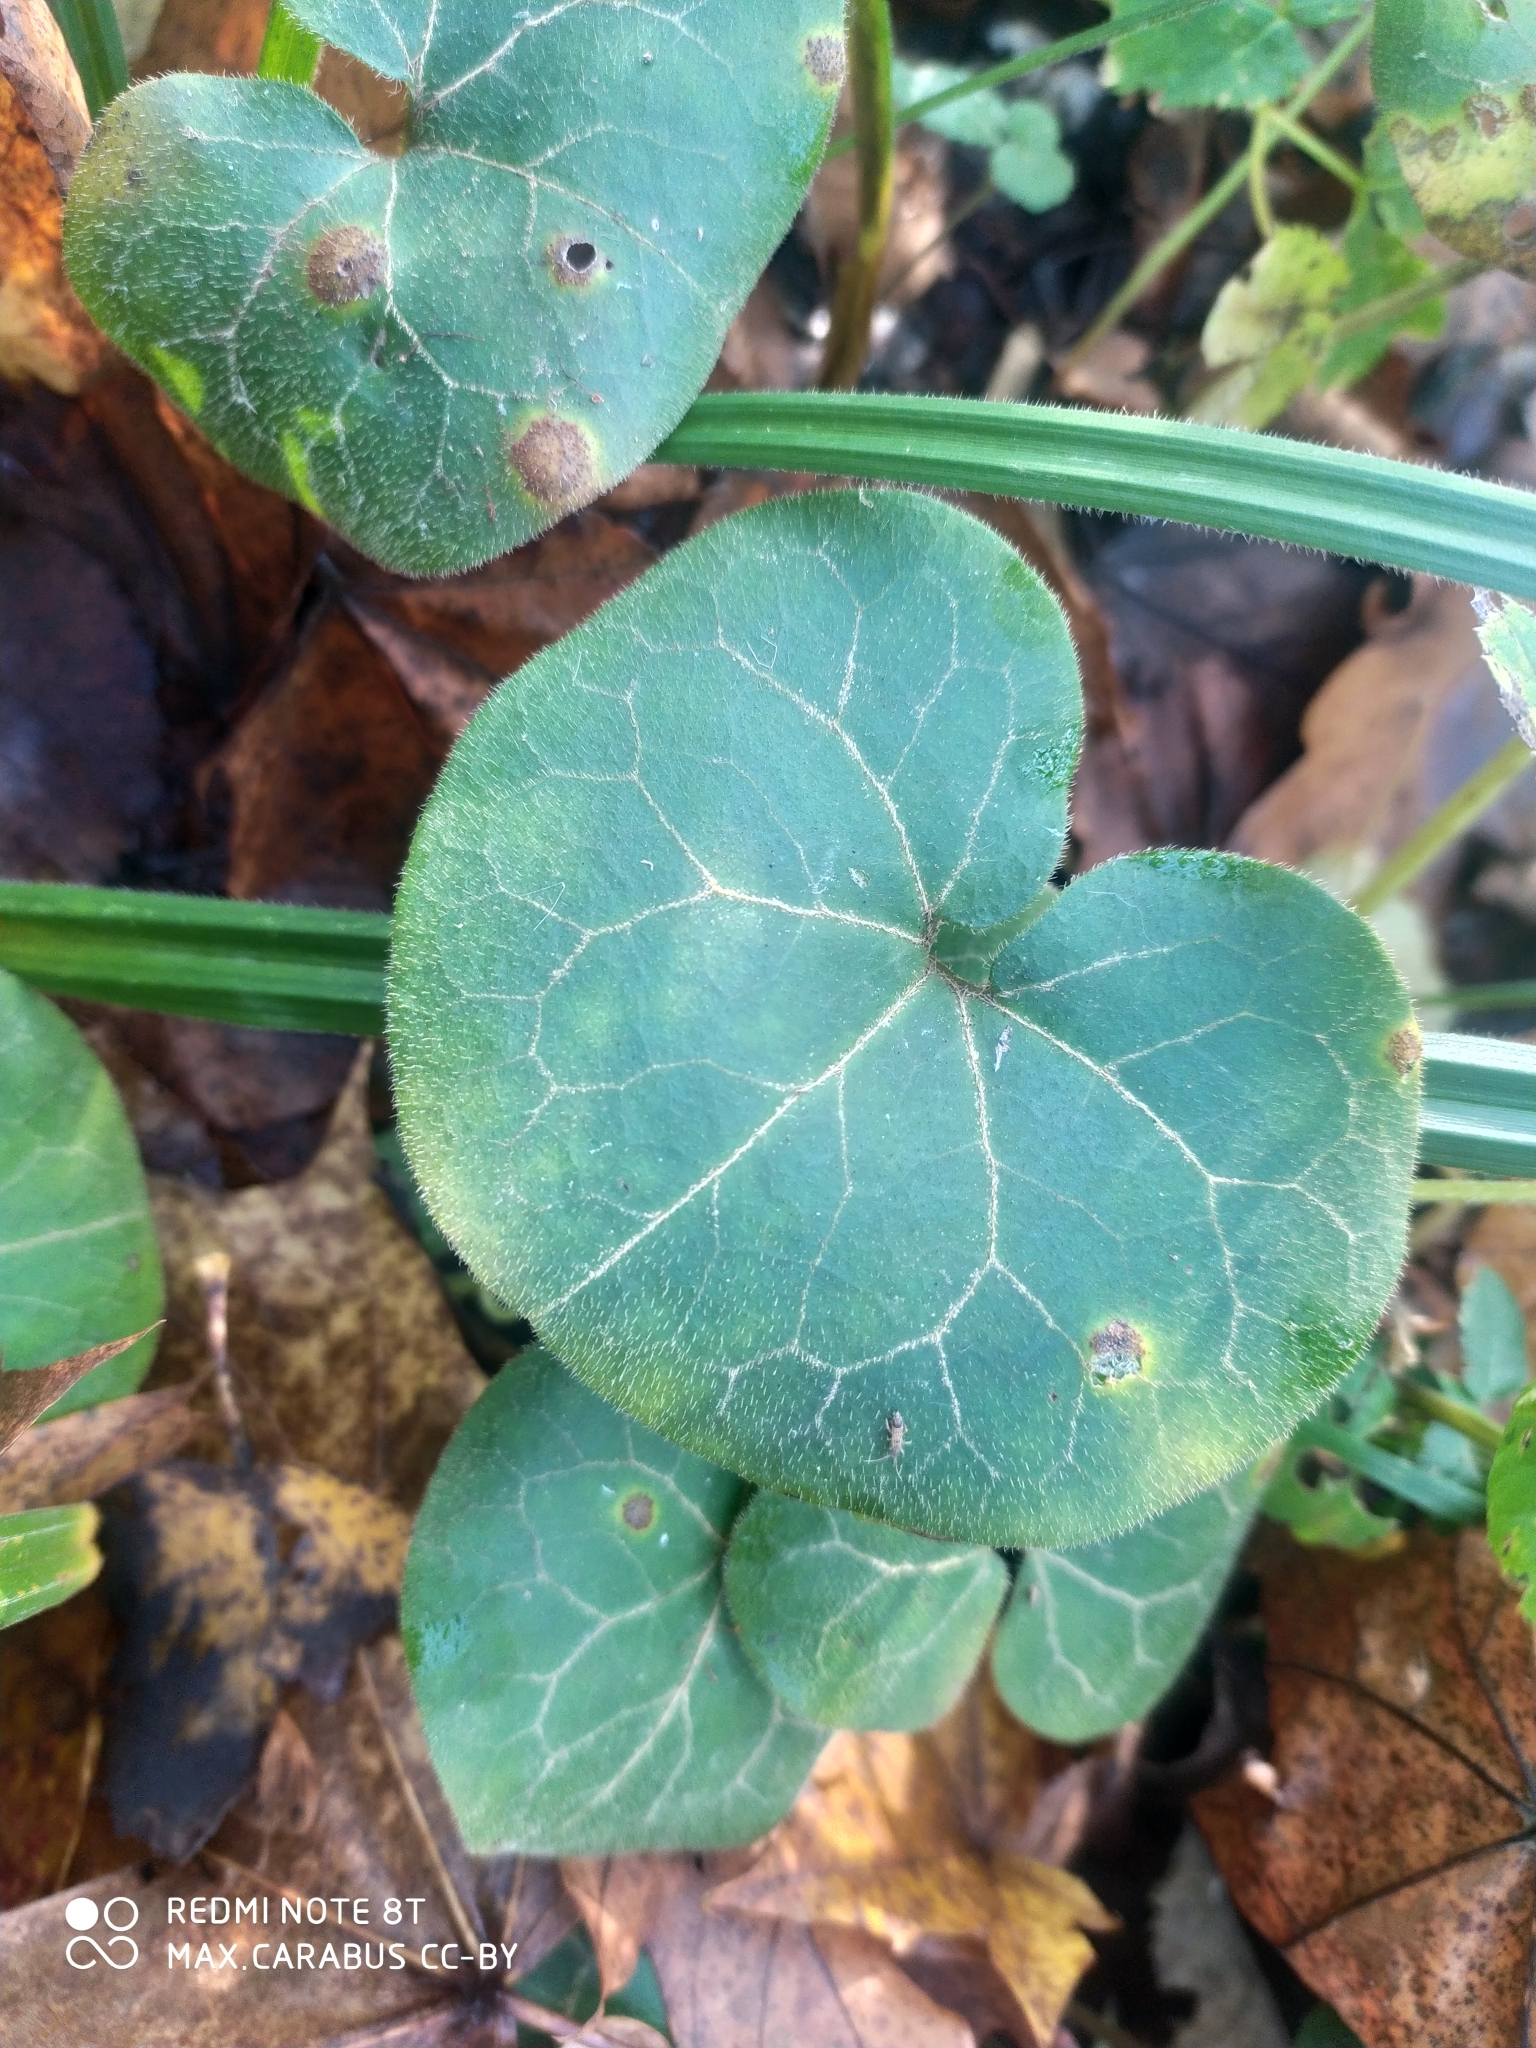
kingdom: Plantae
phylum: Tracheophyta
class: Magnoliopsida
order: Piperales
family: Aristolochiaceae
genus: Asarum
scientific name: Asarum europaeum
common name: Asarabacca
